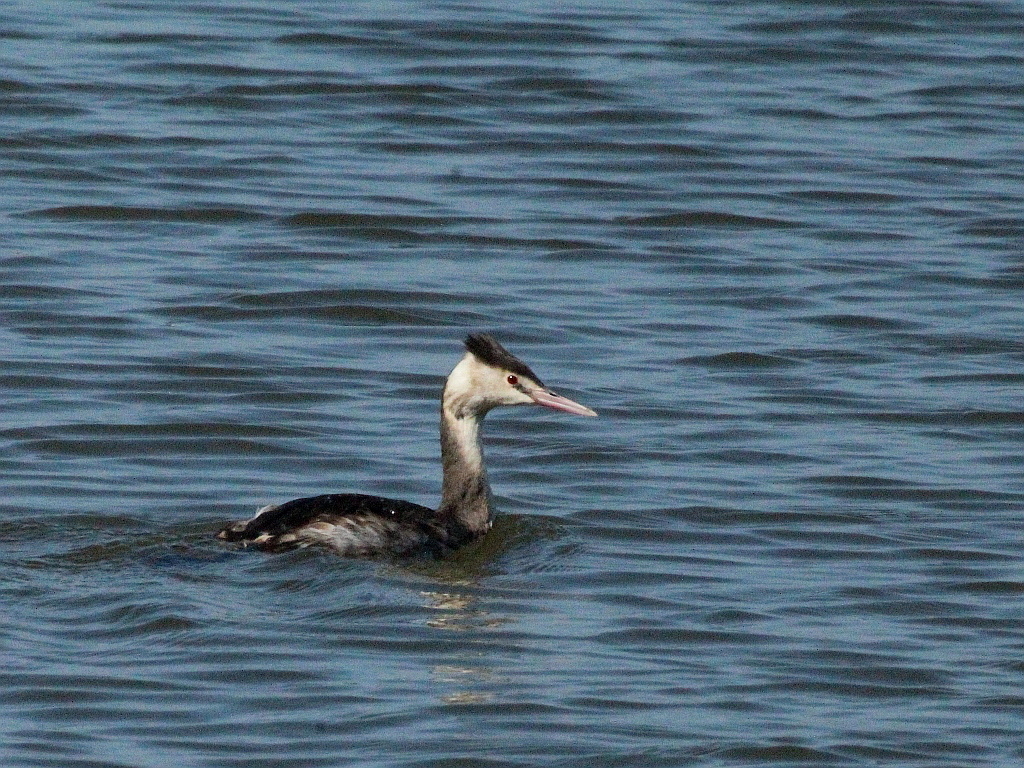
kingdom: Animalia
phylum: Chordata
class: Aves
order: Podicipediformes
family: Podicipedidae
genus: Podiceps
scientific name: Podiceps cristatus
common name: Great crested grebe
